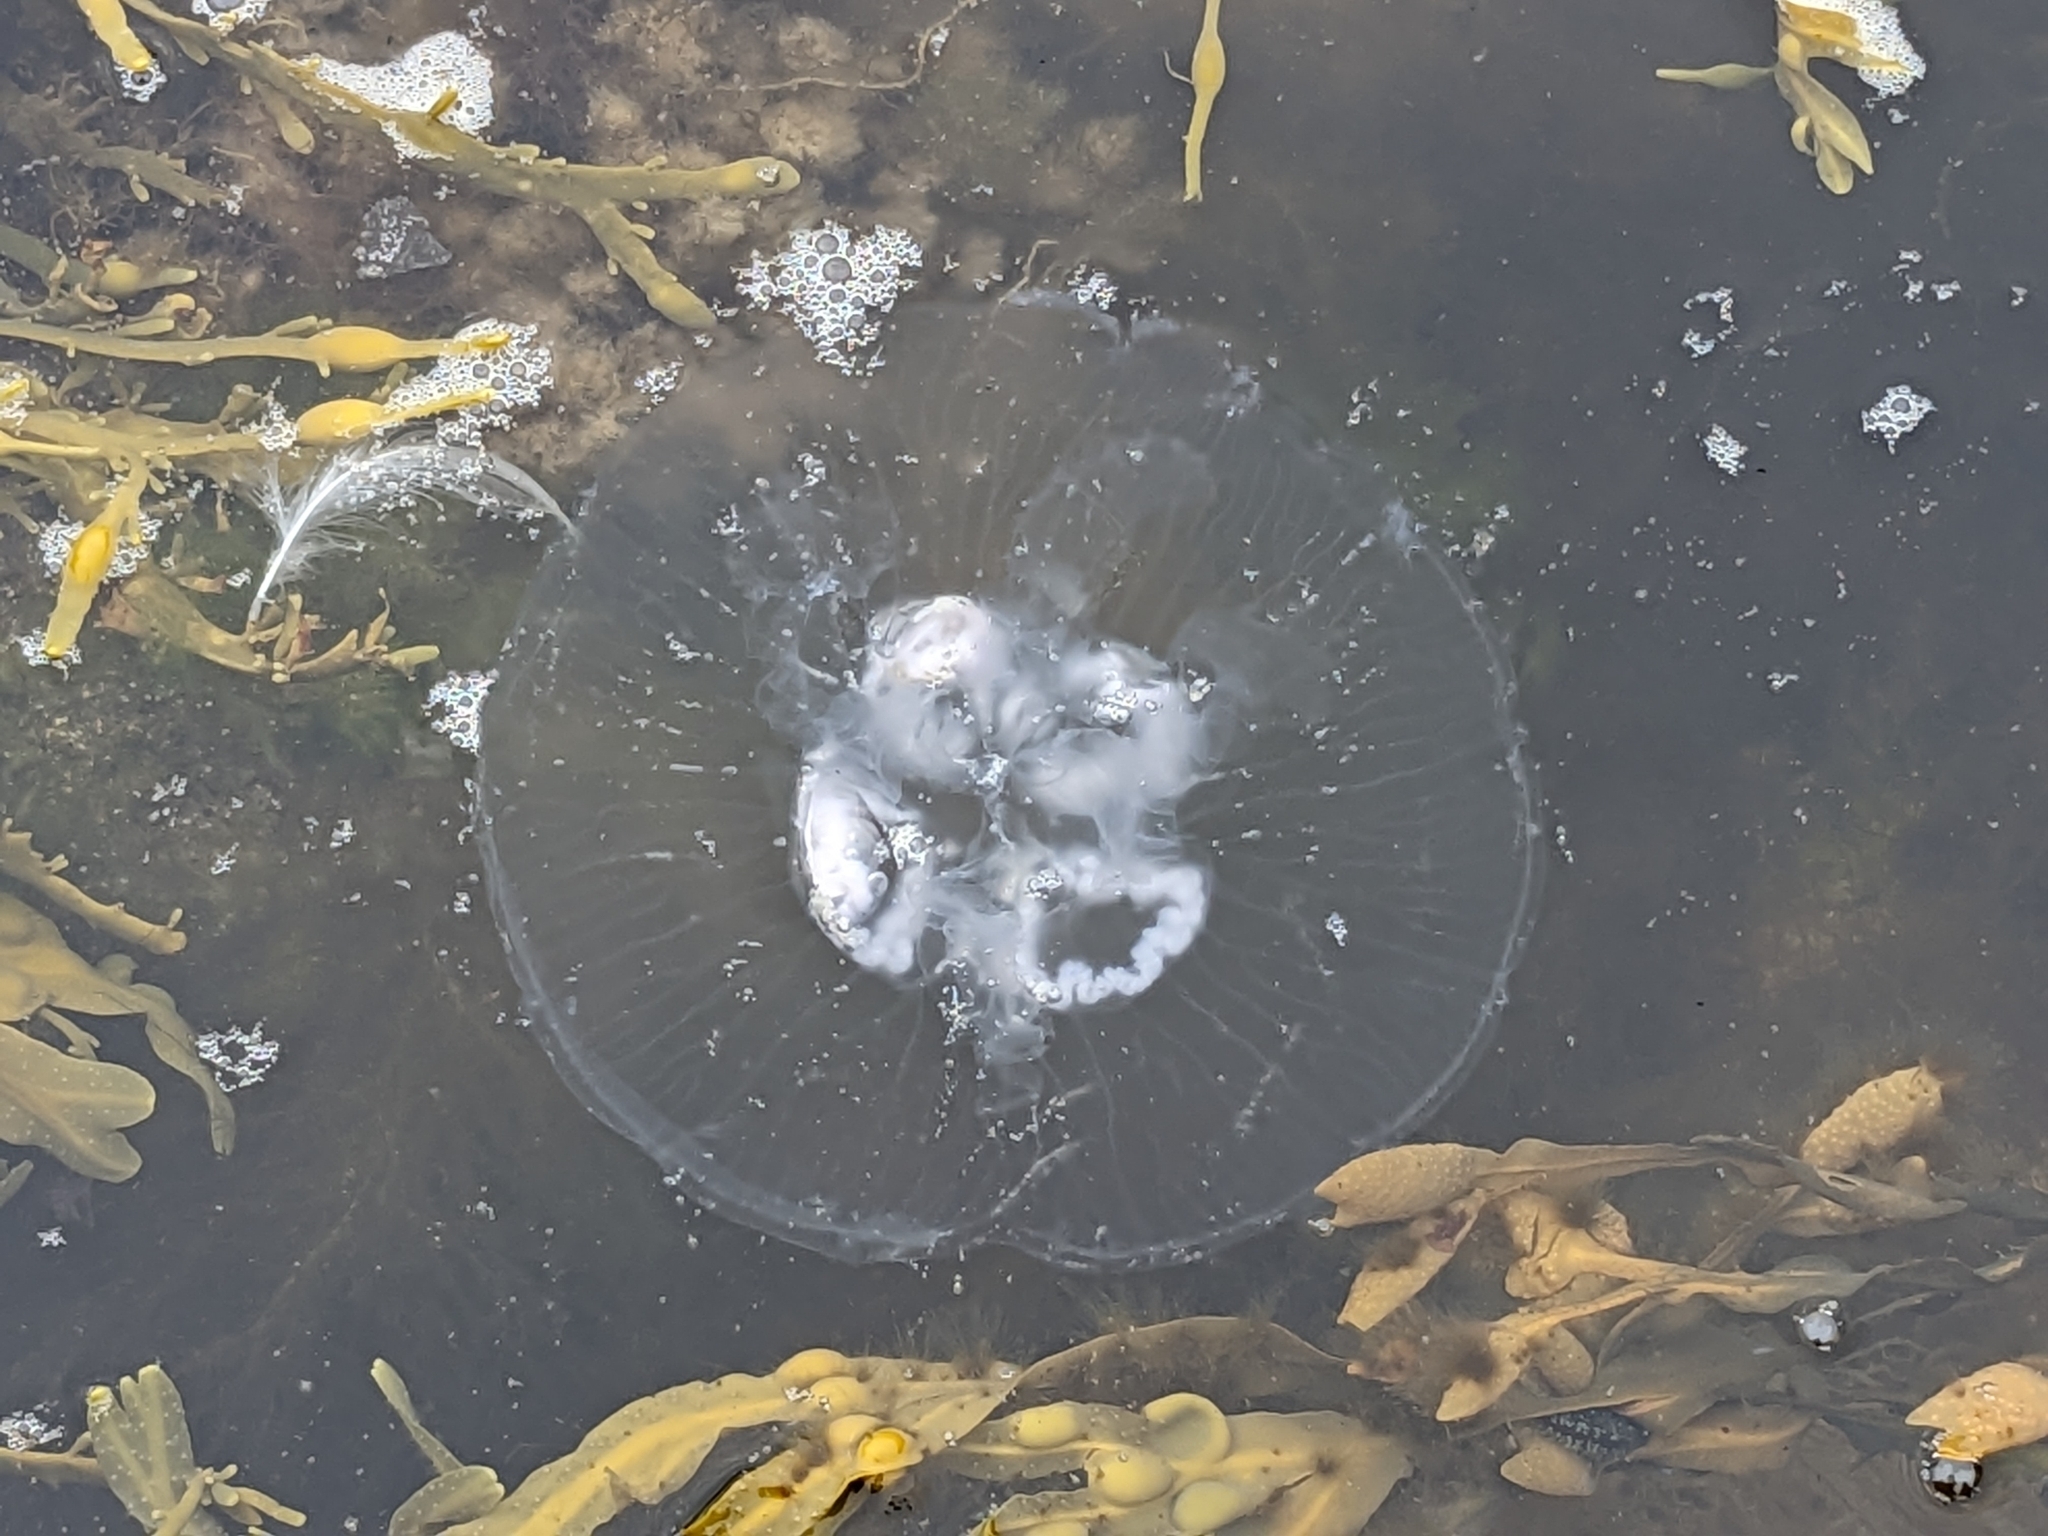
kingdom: Animalia
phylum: Cnidaria
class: Scyphozoa
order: Semaeostomeae
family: Ulmaridae
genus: Aurelia
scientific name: Aurelia aurita
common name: Moon jellyfish
